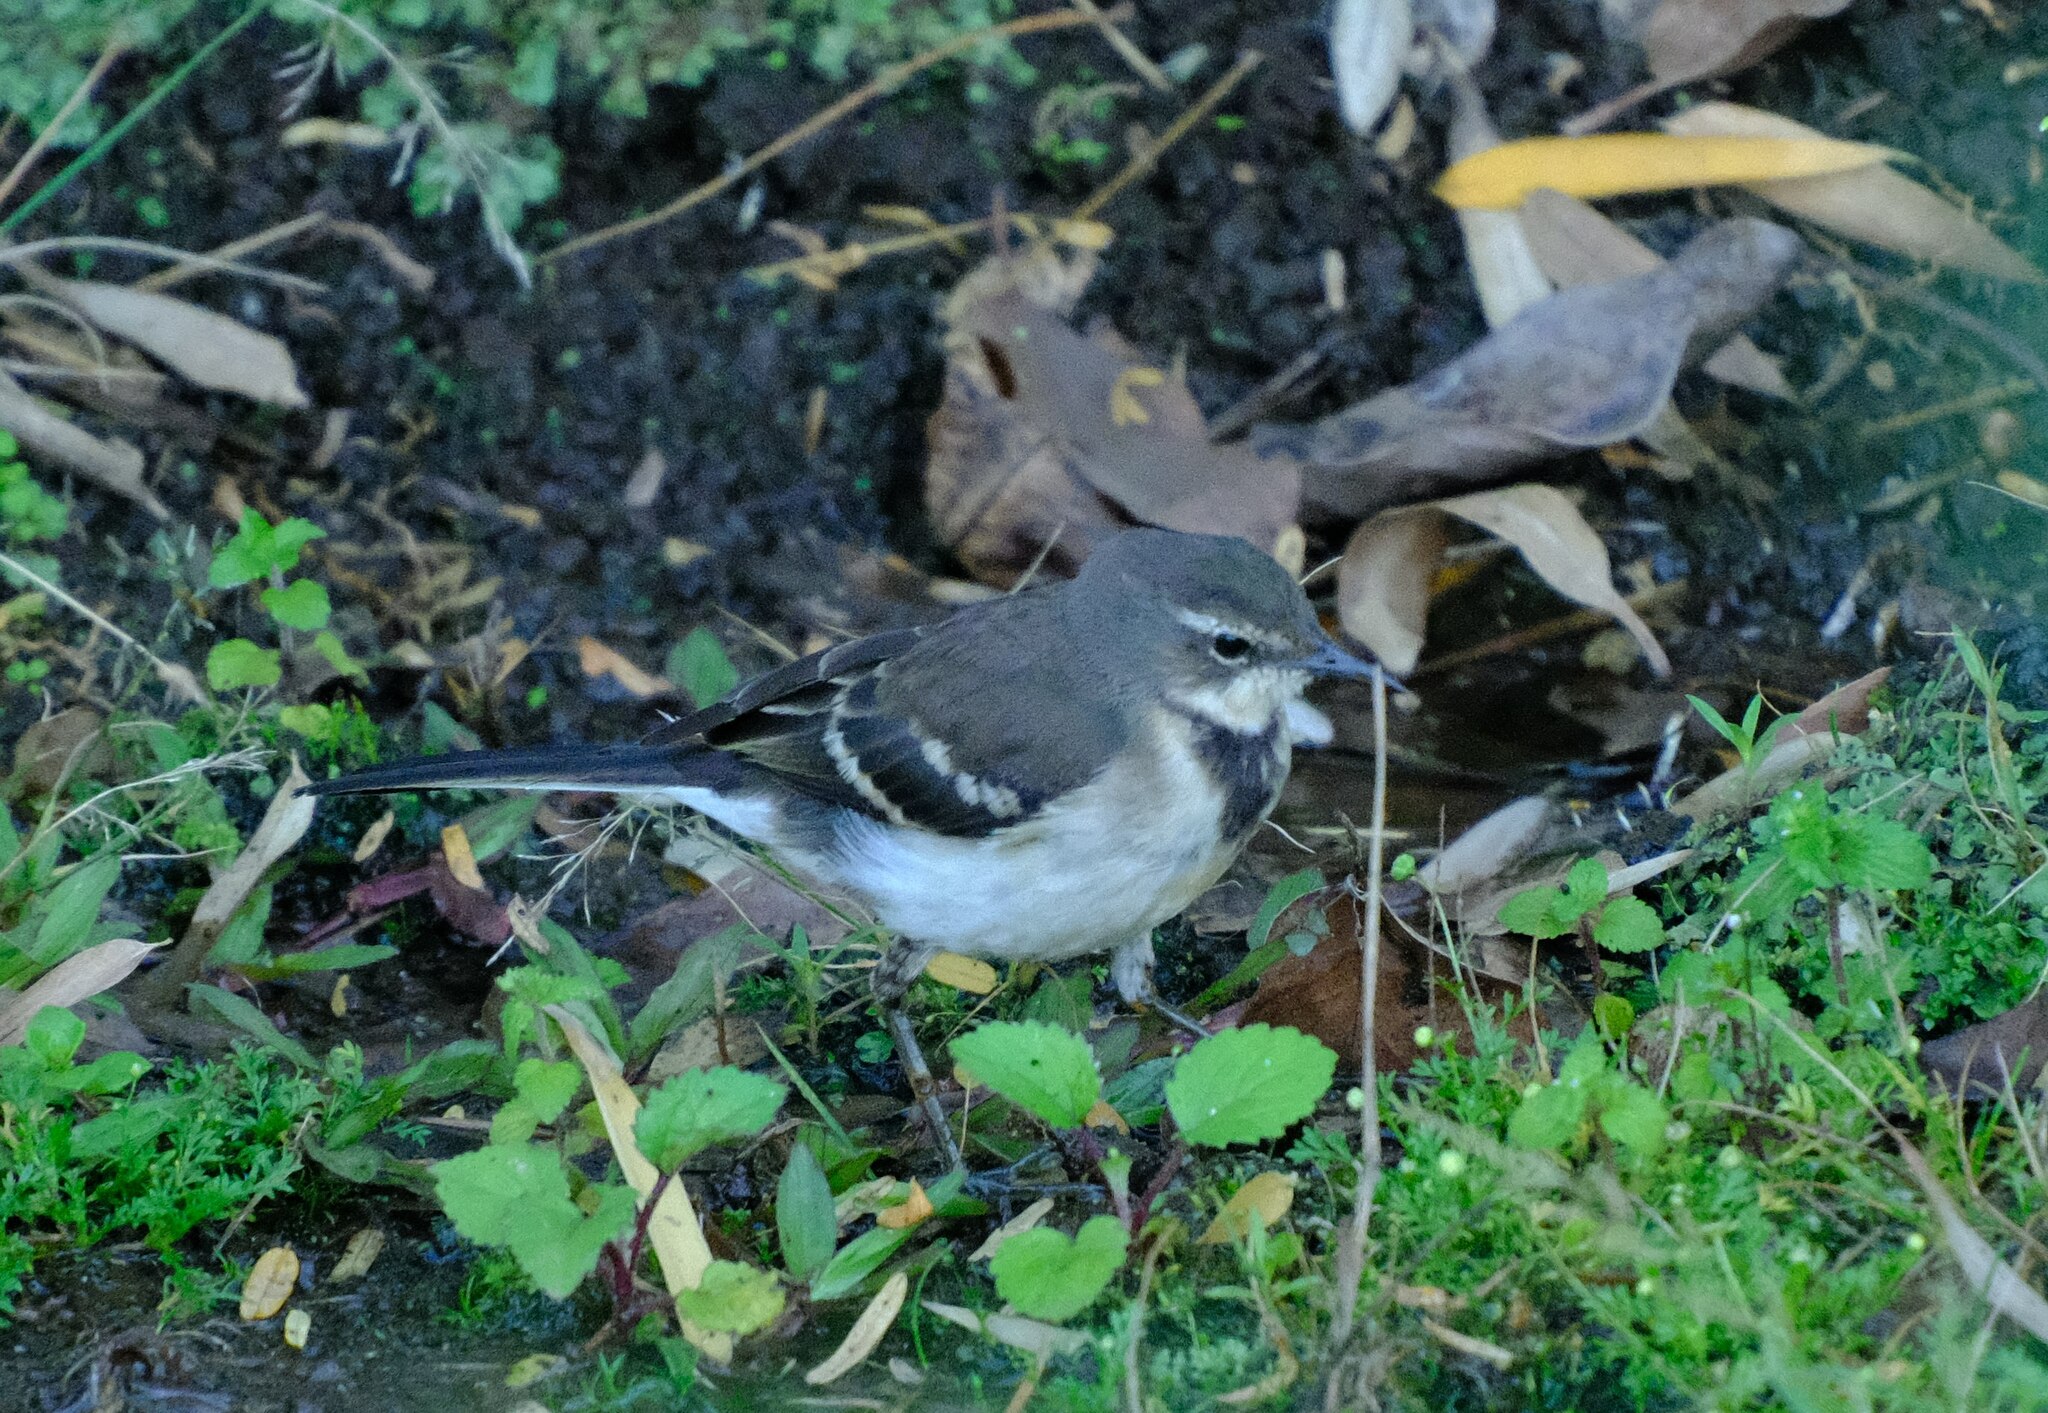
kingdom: Animalia
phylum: Chordata
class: Aves
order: Passeriformes
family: Motacillidae
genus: Motacilla
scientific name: Motacilla capensis
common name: Cape wagtail
